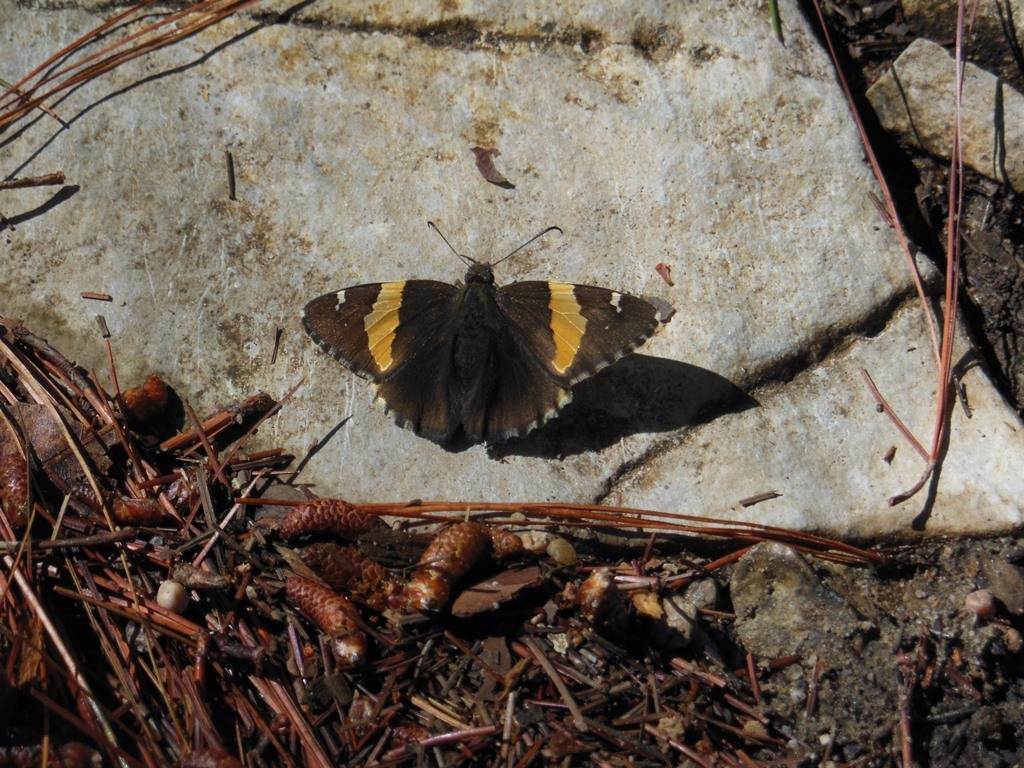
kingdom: Animalia
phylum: Arthropoda
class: Arachnida
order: Scorpiones
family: Bothriuridae
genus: Telegonus
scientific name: Telegonus cellus
